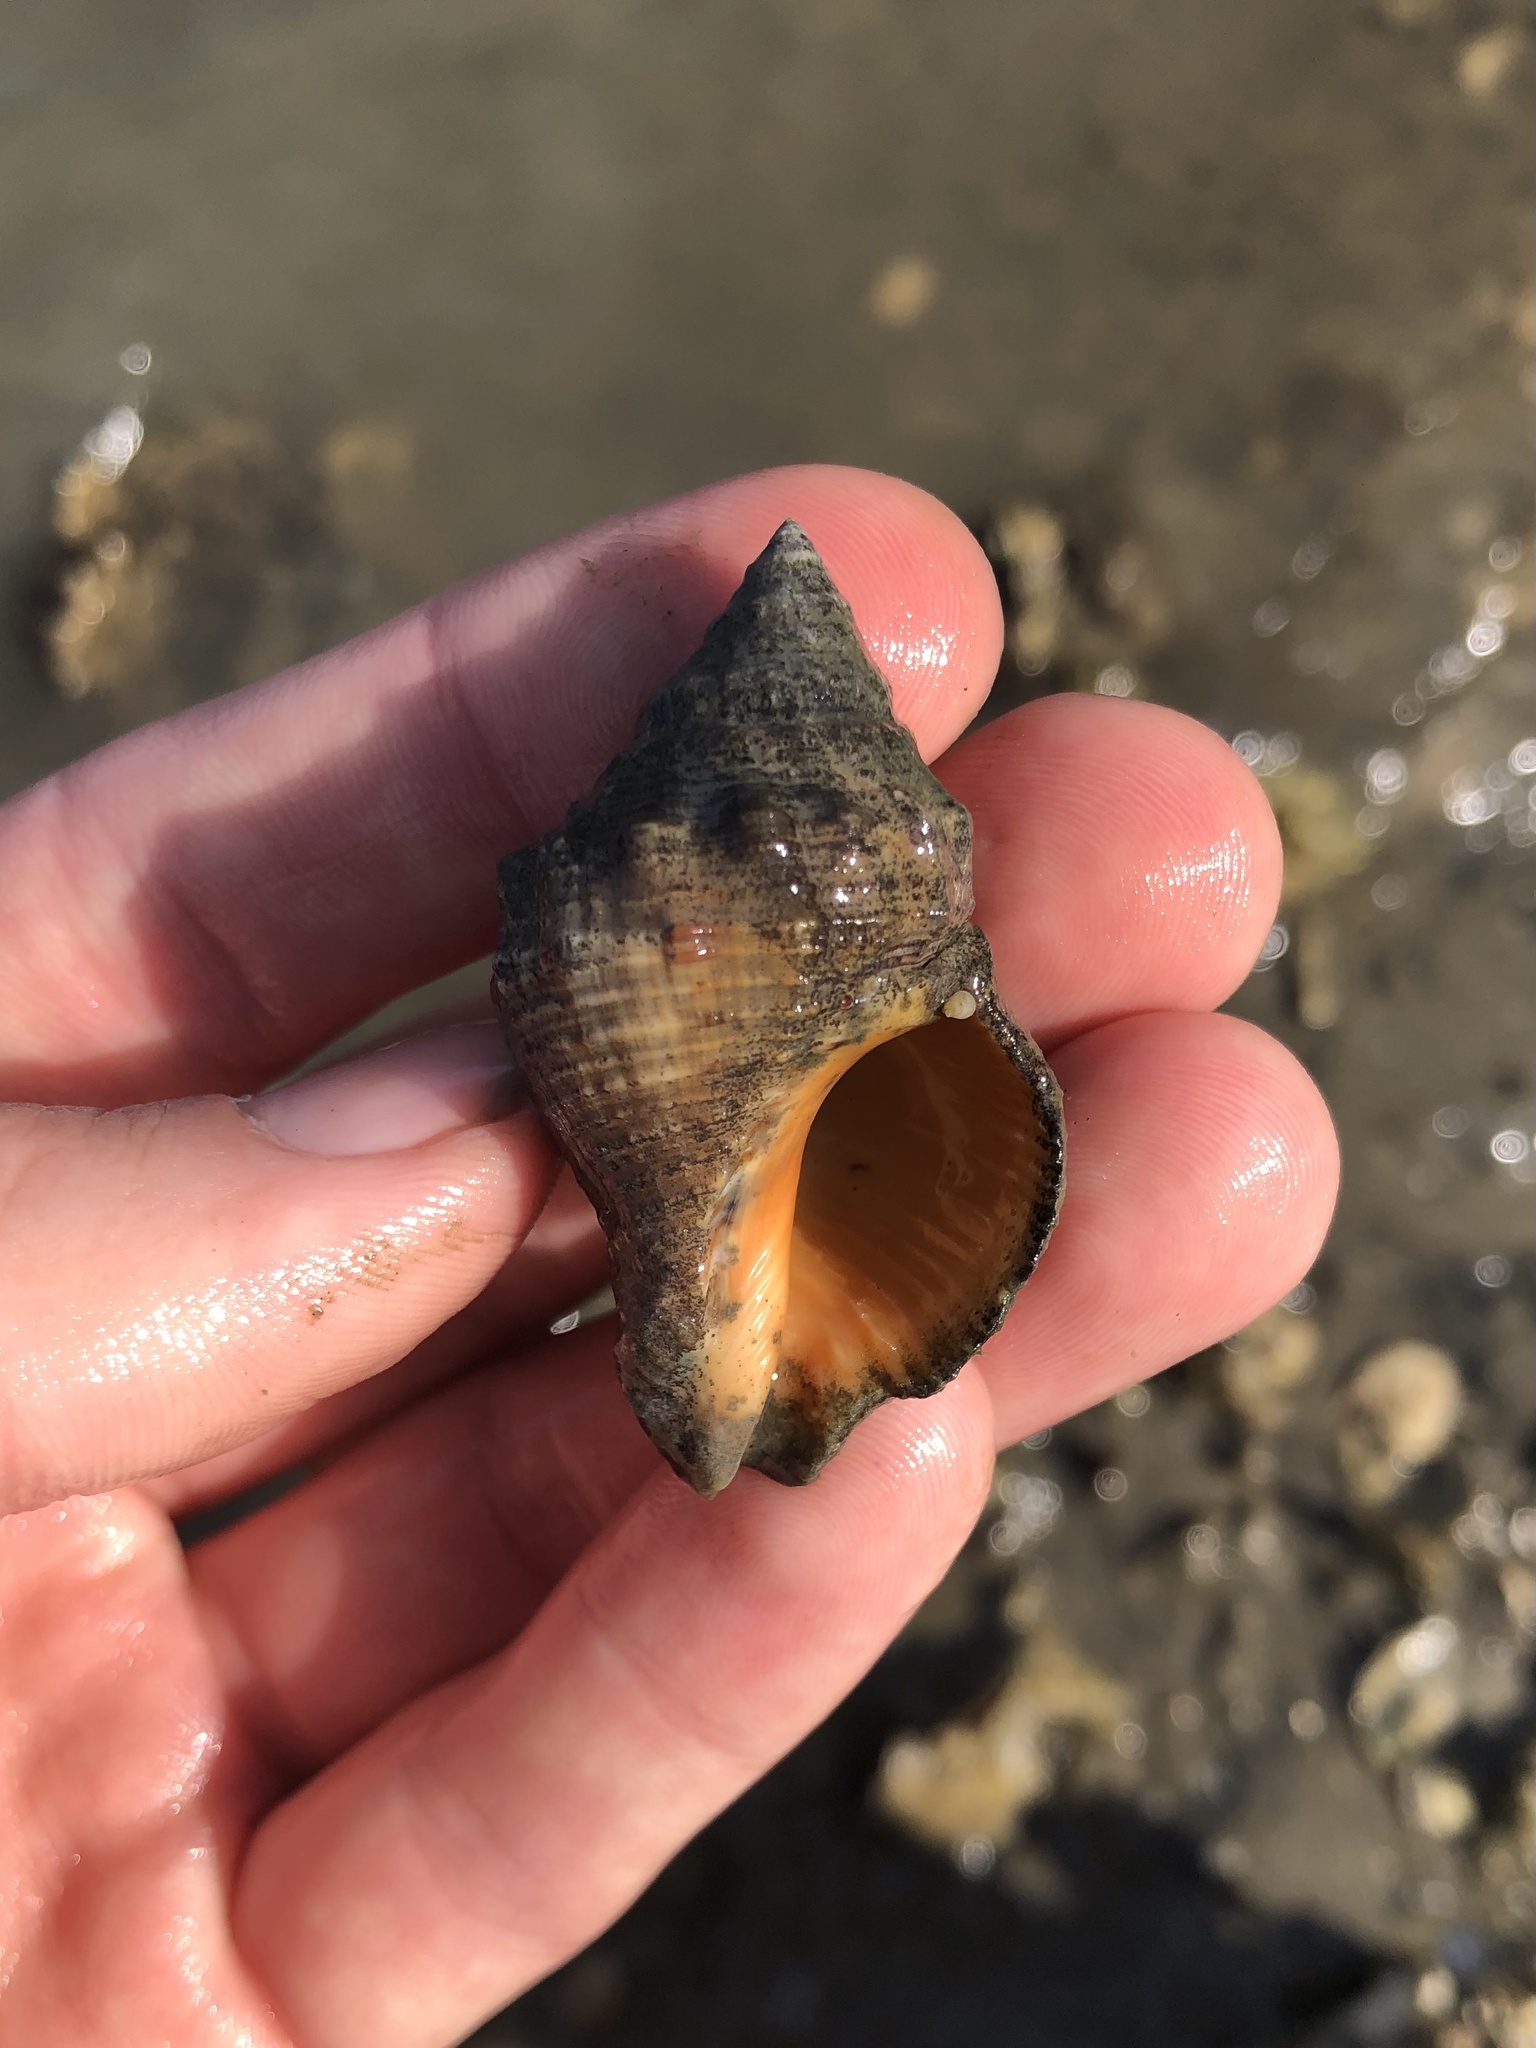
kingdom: Animalia
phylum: Mollusca
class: Gastropoda
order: Neogastropoda
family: Muricidae
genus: Stramonita
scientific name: Stramonita floridana
